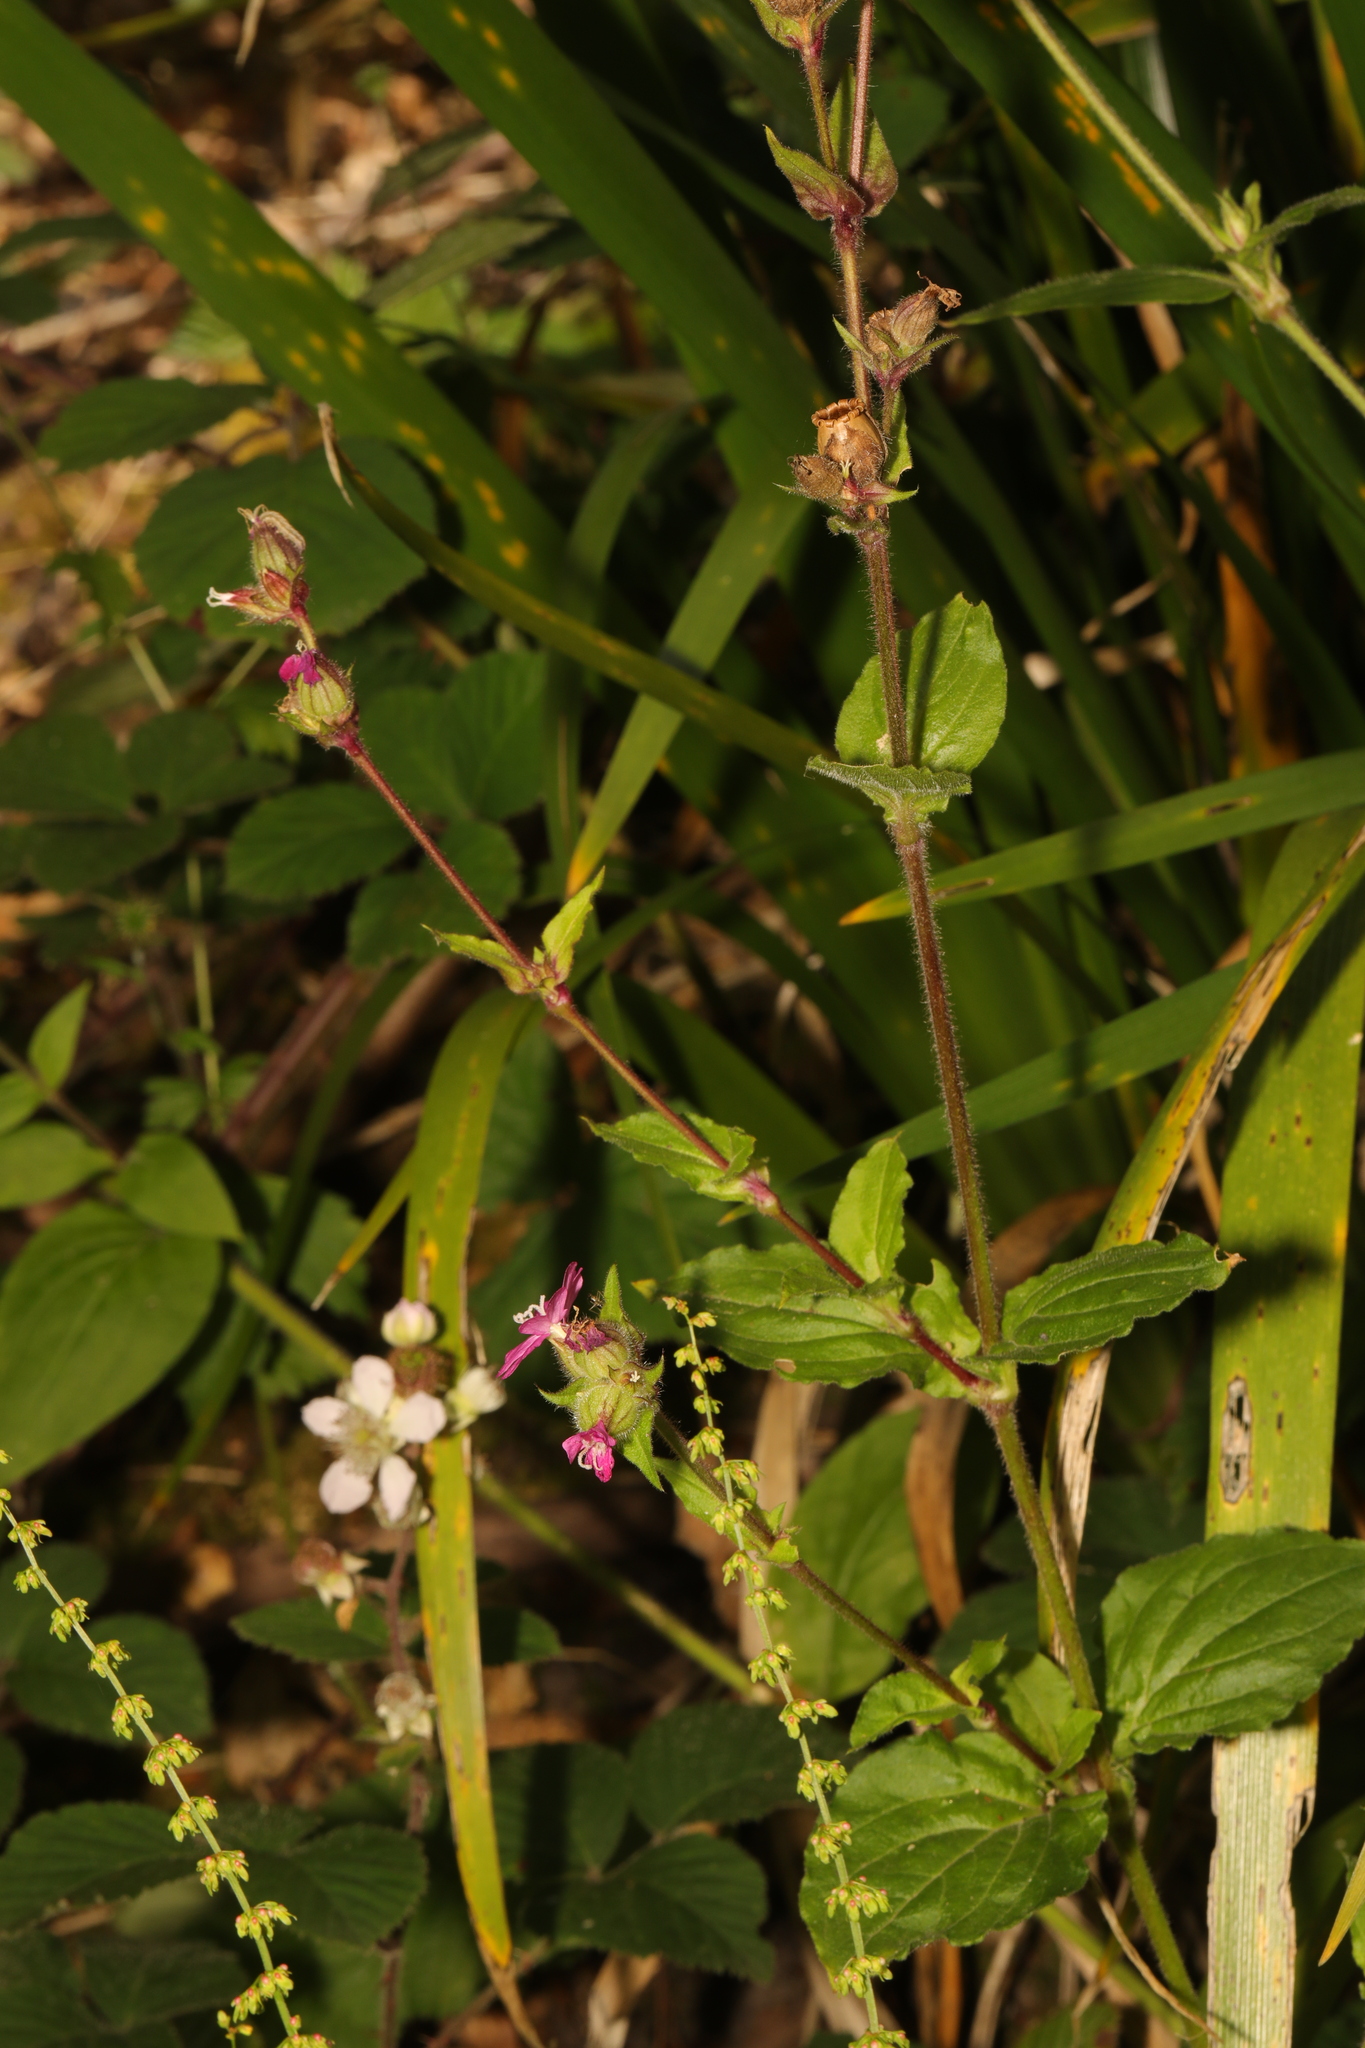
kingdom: Plantae
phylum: Tracheophyta
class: Magnoliopsida
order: Caryophyllales
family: Caryophyllaceae
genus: Silene
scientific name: Silene dioica
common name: Red campion
